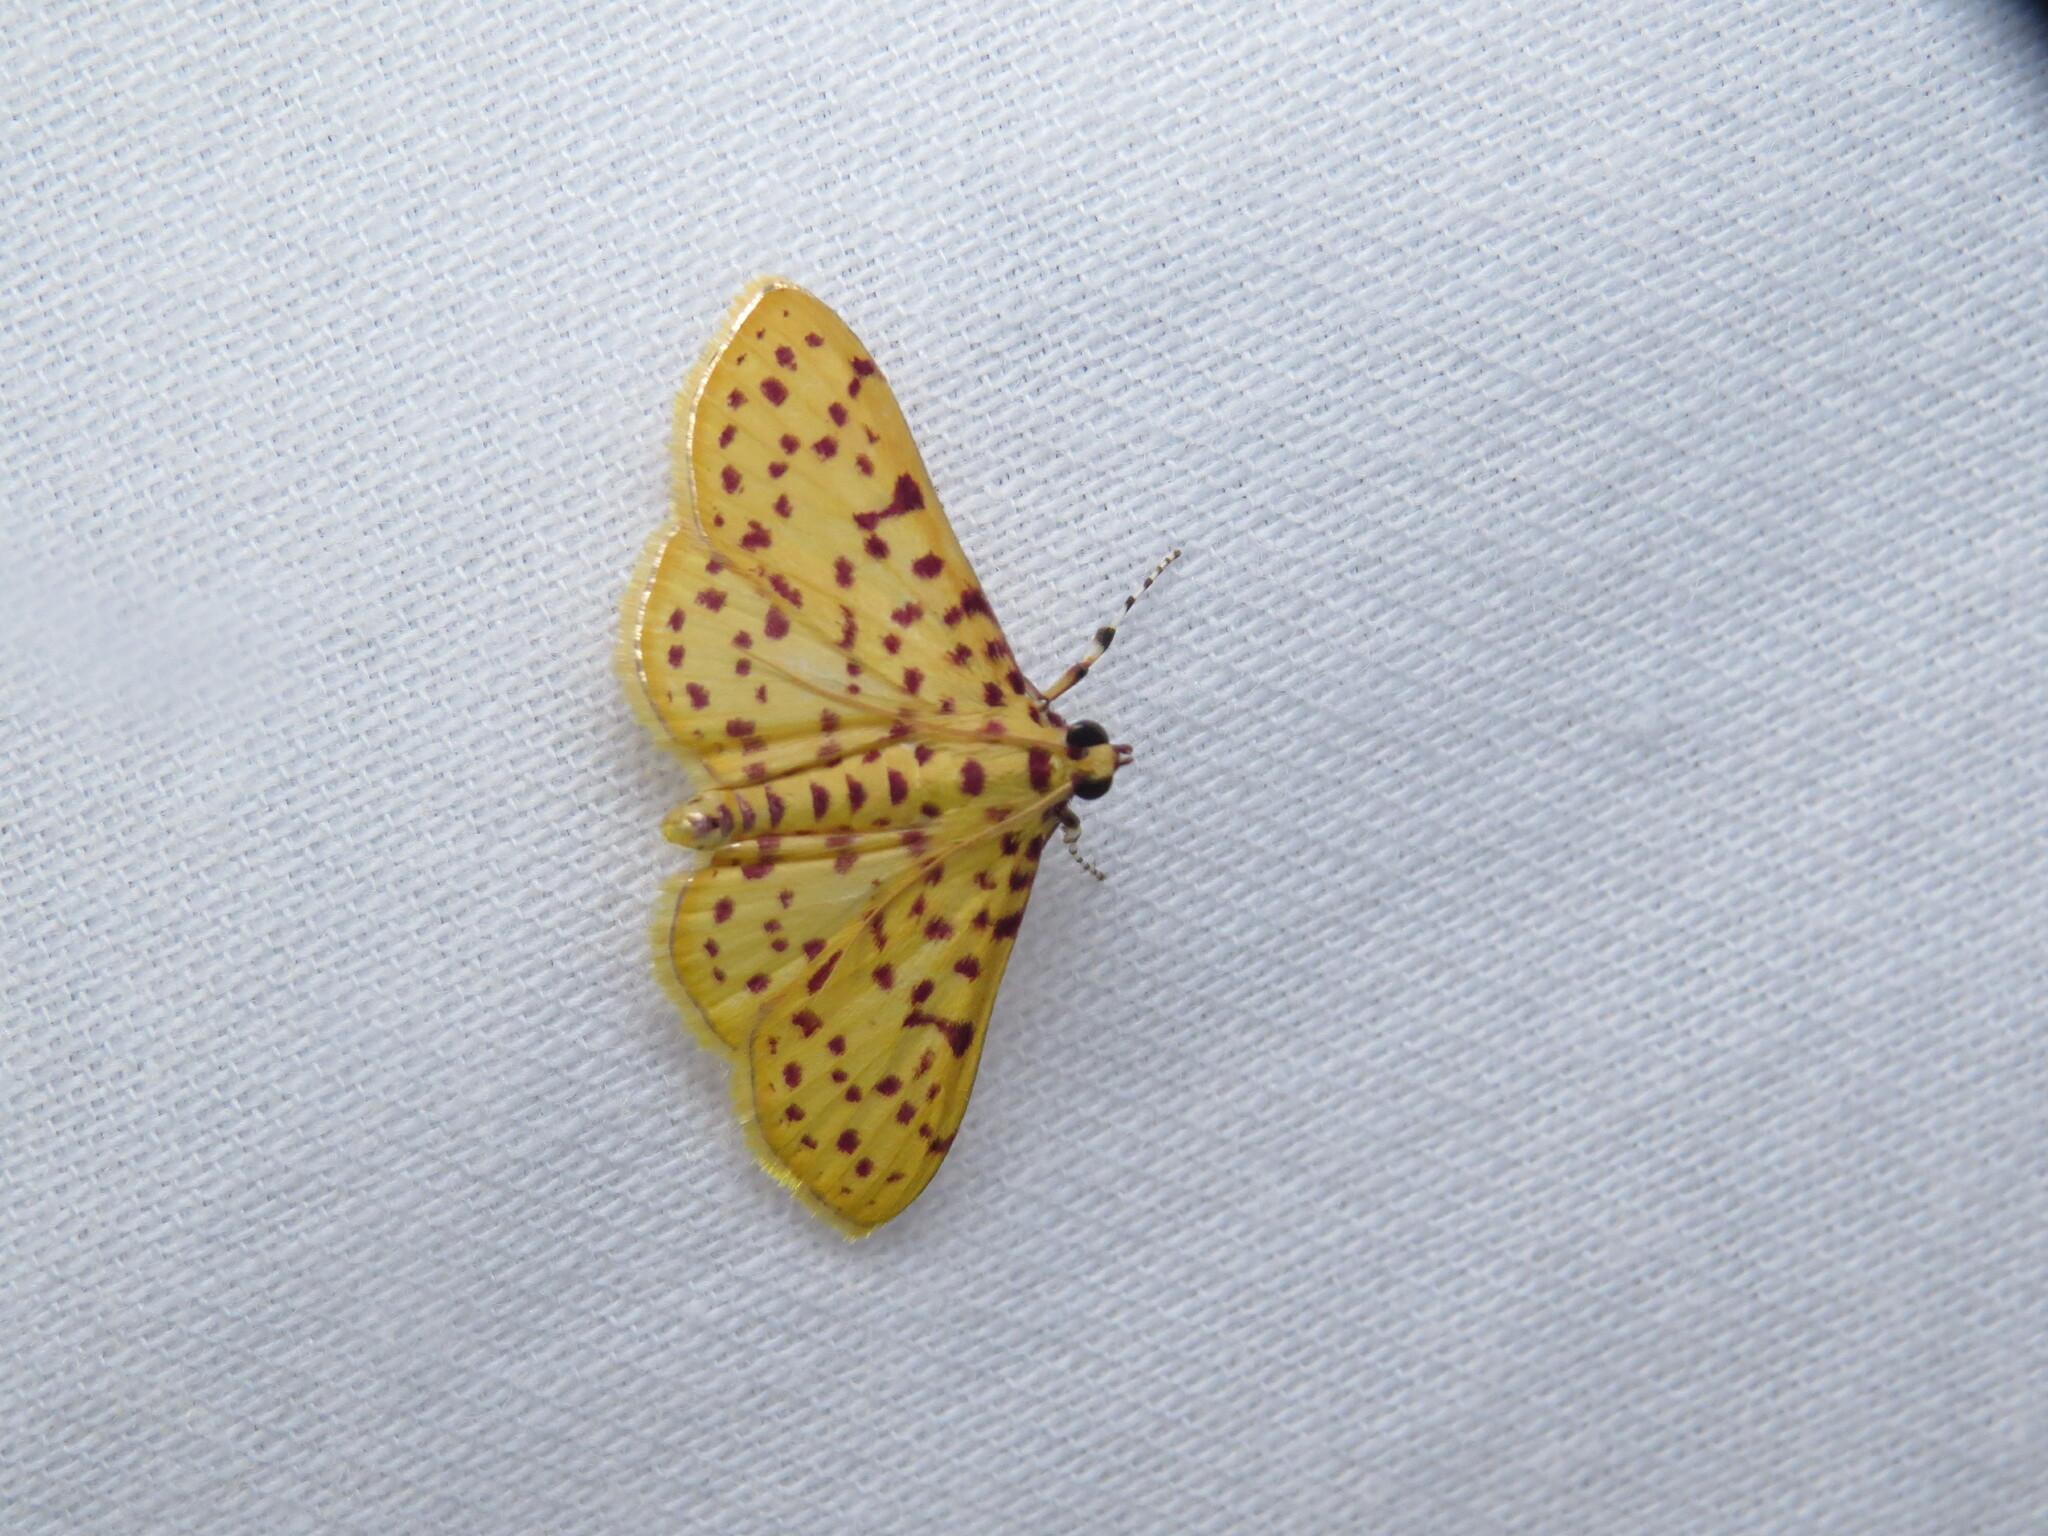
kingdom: Animalia
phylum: Arthropoda
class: Insecta
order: Lepidoptera
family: Crambidae
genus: Polygrammodes
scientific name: Polygrammodes elevata
